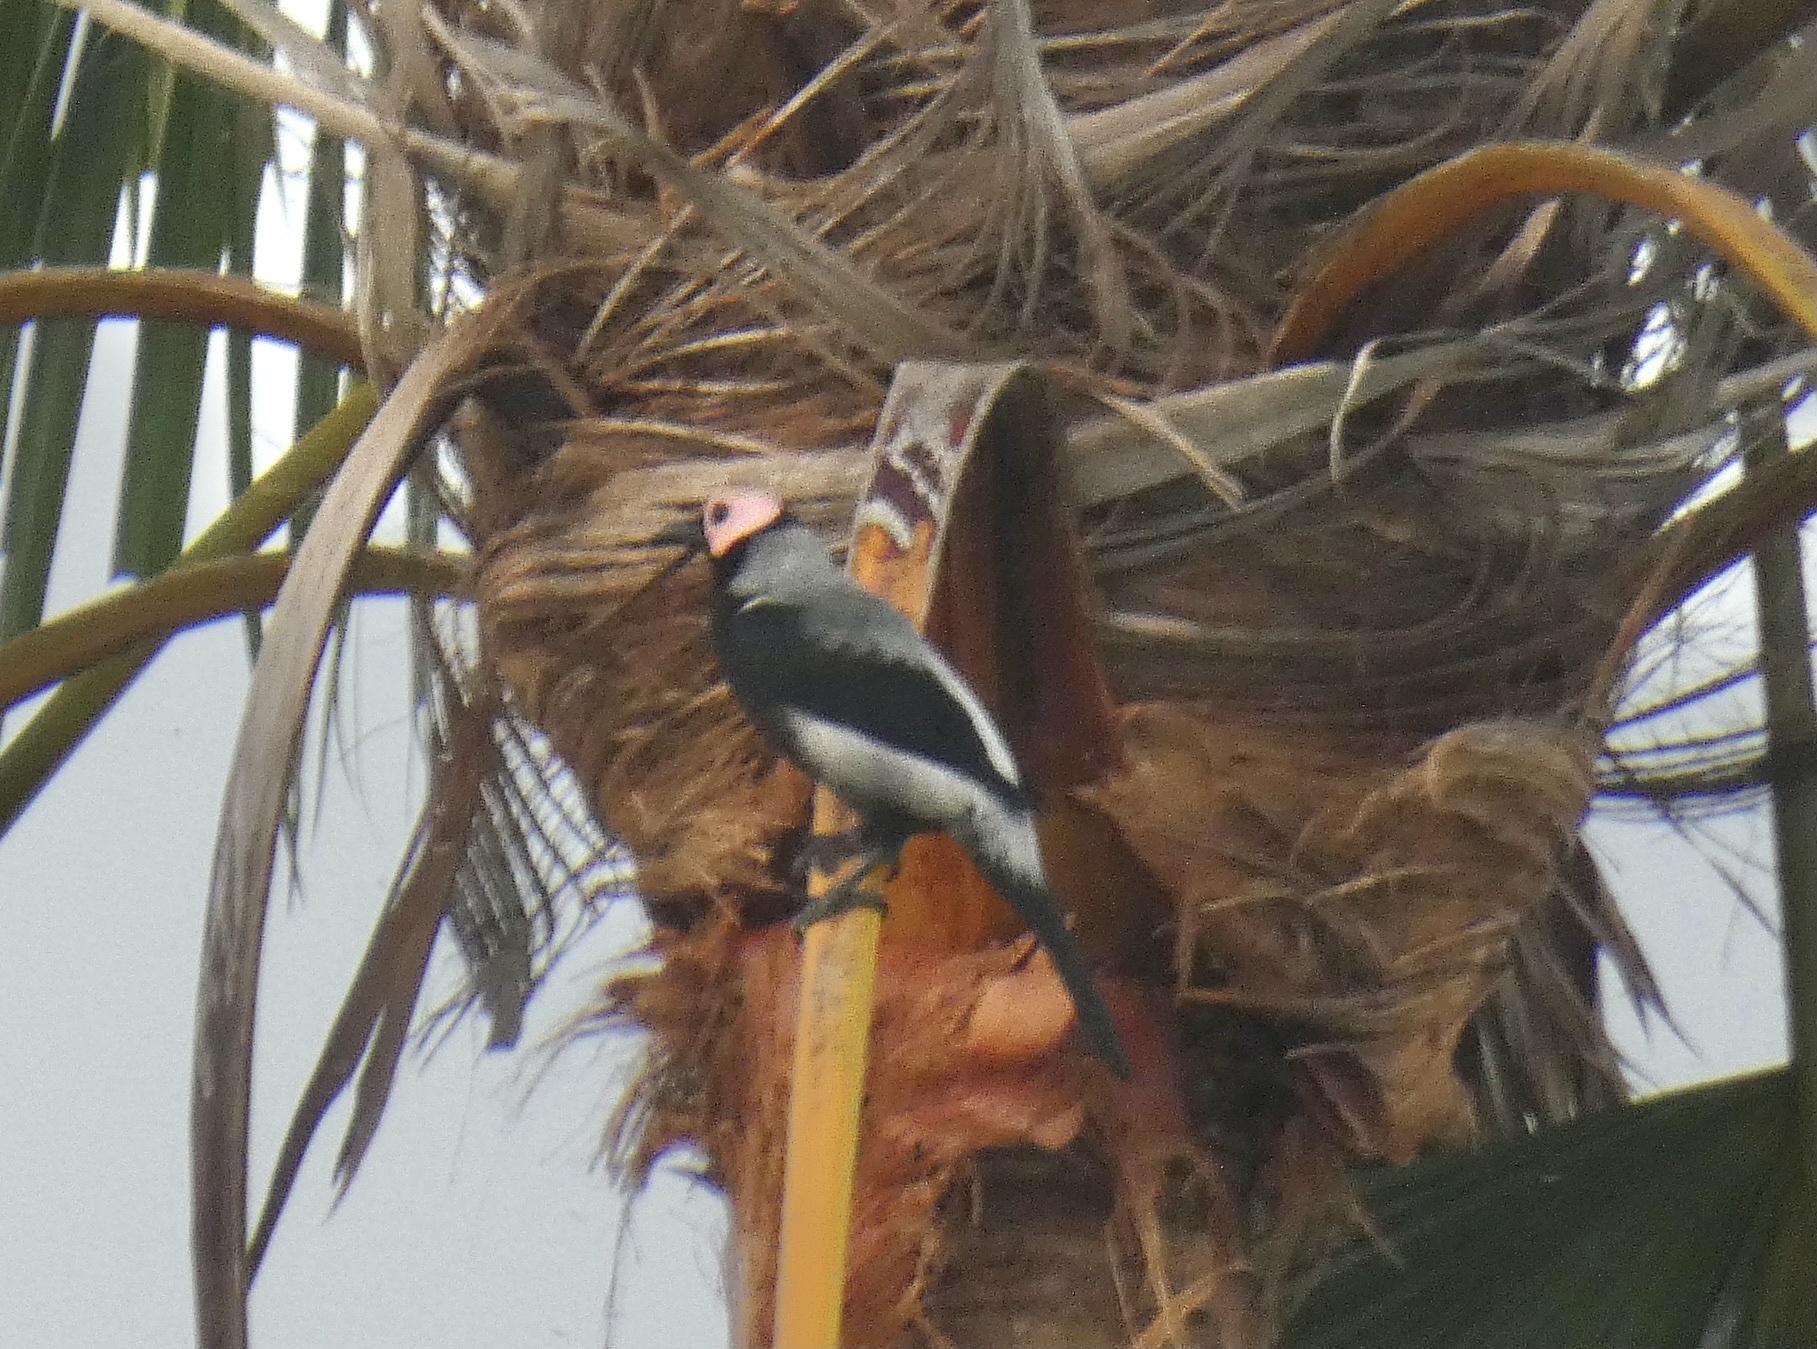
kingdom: Animalia
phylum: Chordata
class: Aves
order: Passeriformes
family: Sturnidae
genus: Sarcops
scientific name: Sarcops calvus
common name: Coleto
